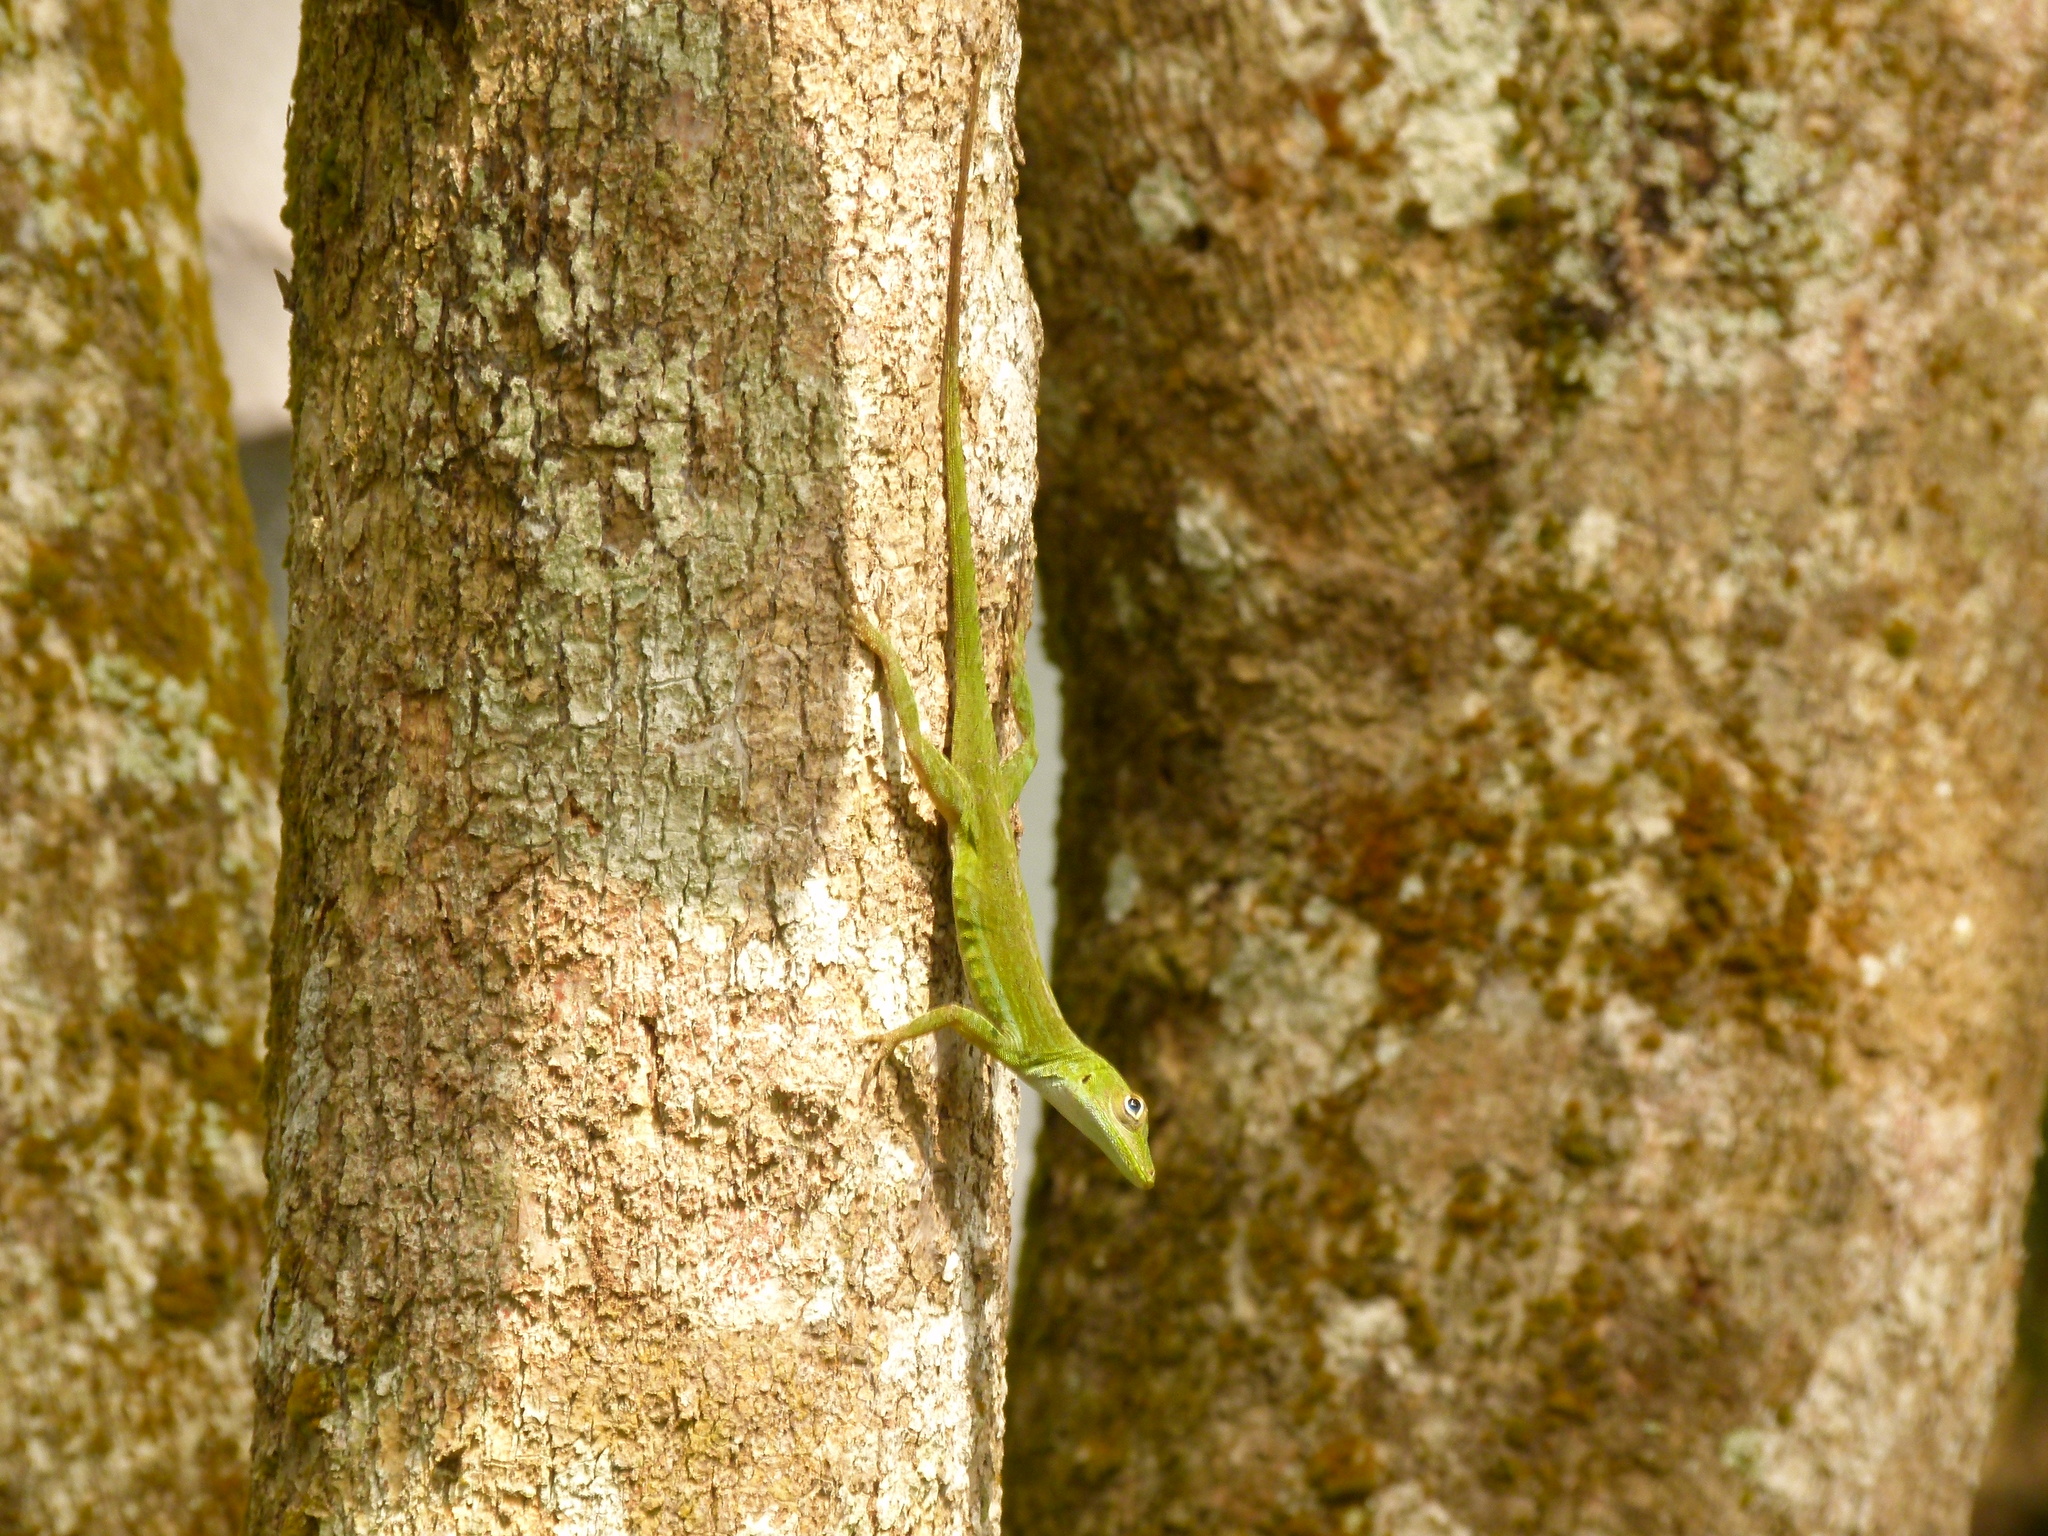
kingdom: Animalia
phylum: Chordata
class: Squamata
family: Dactyloidae
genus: Anolis
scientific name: Anolis evermanni
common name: Emerald anole
